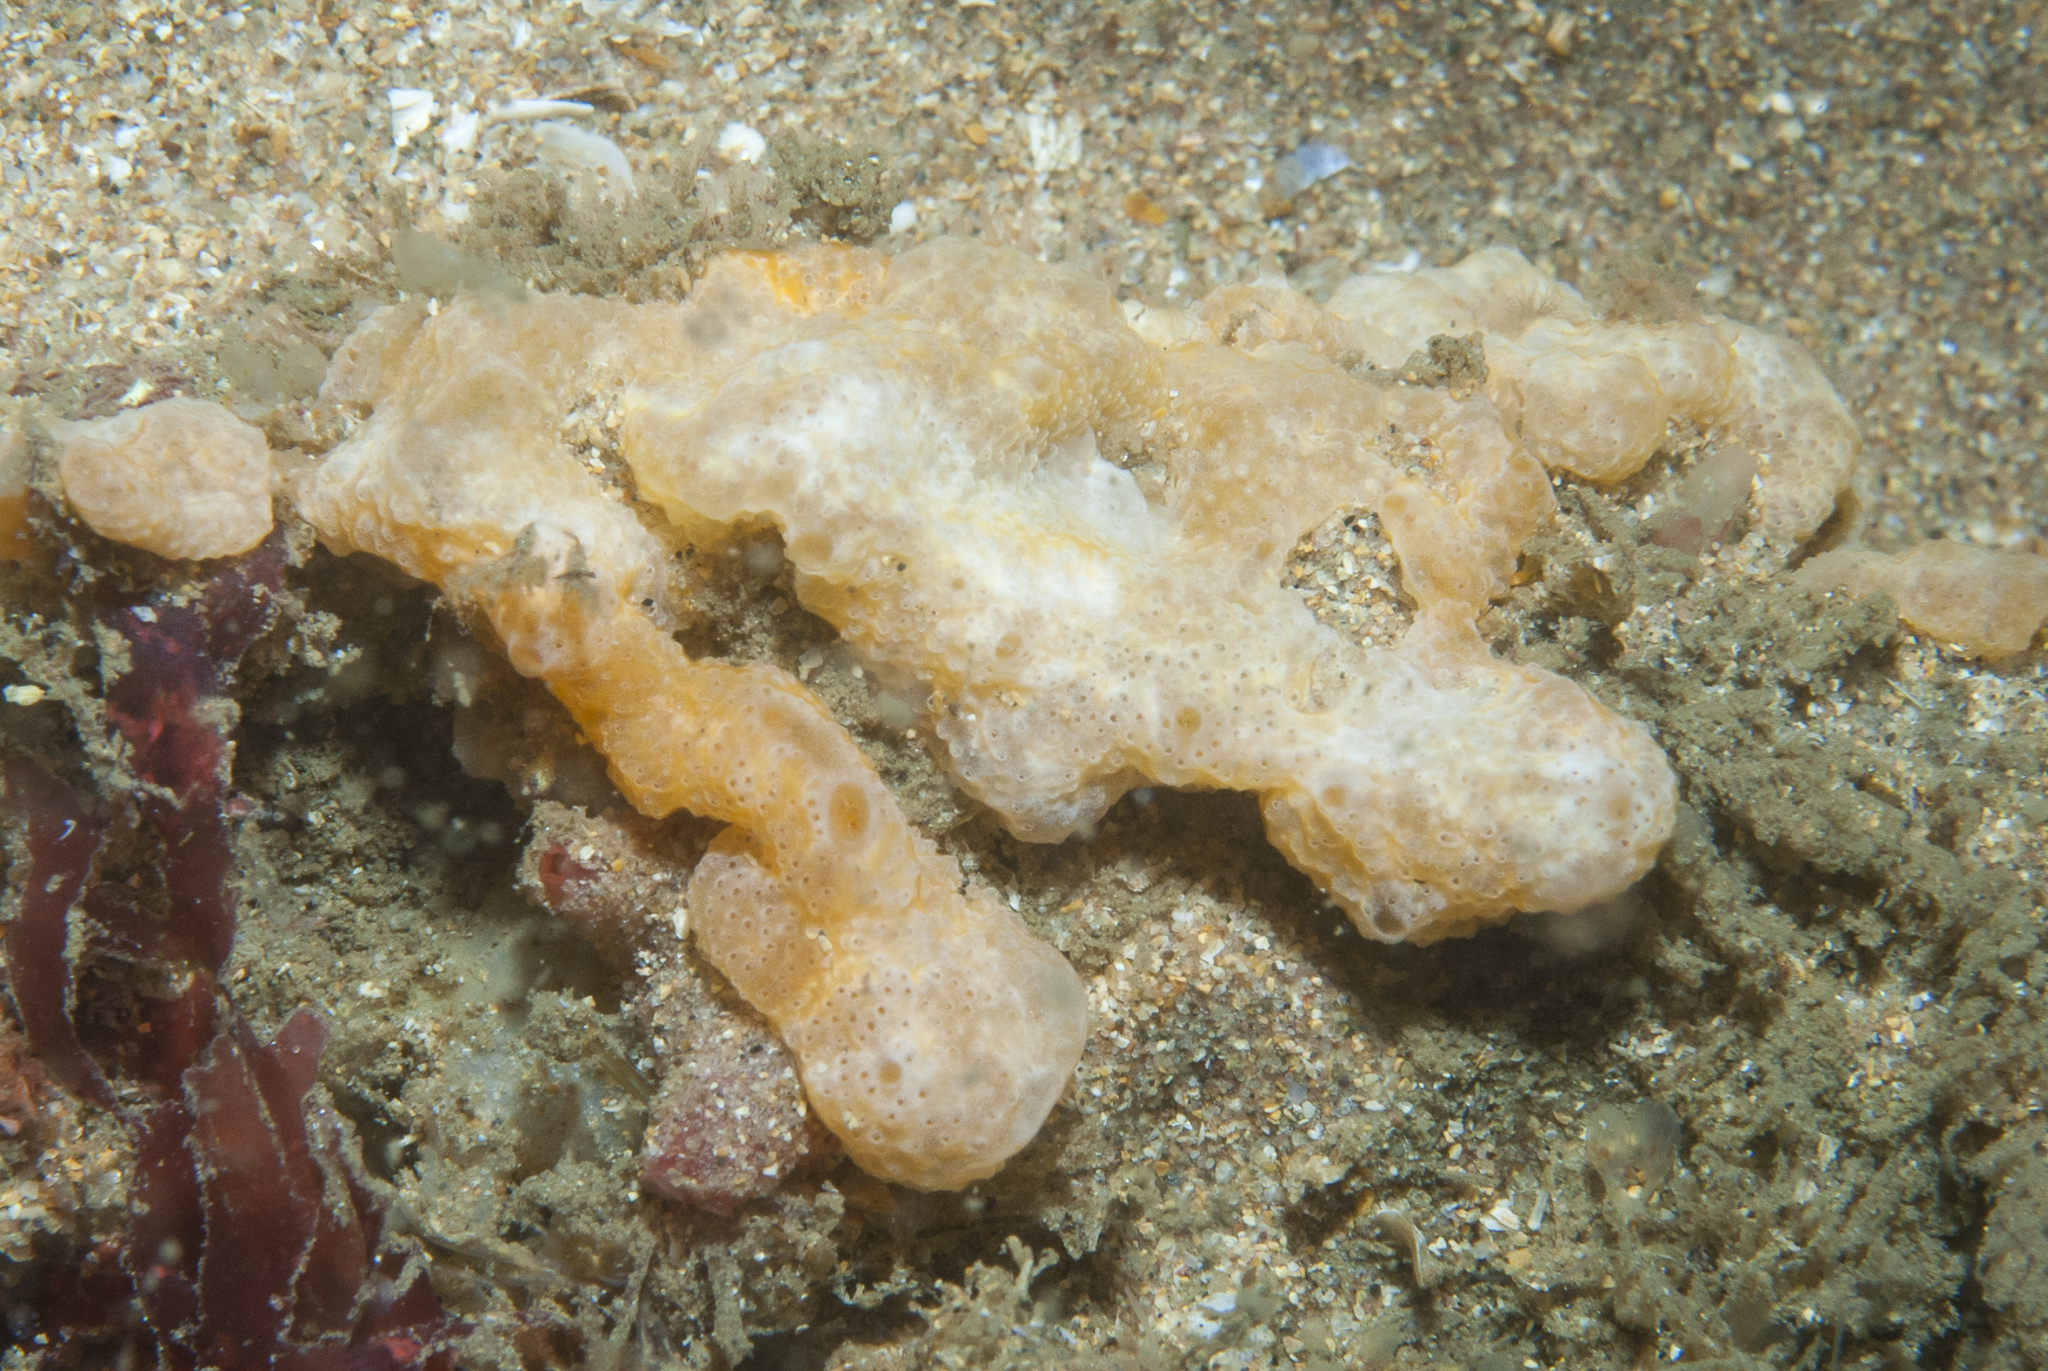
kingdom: Animalia
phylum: Chordata
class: Ascidiacea
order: Aplousobranchia
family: Didemnidae
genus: Trididemnum
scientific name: Trididemnum cereum
